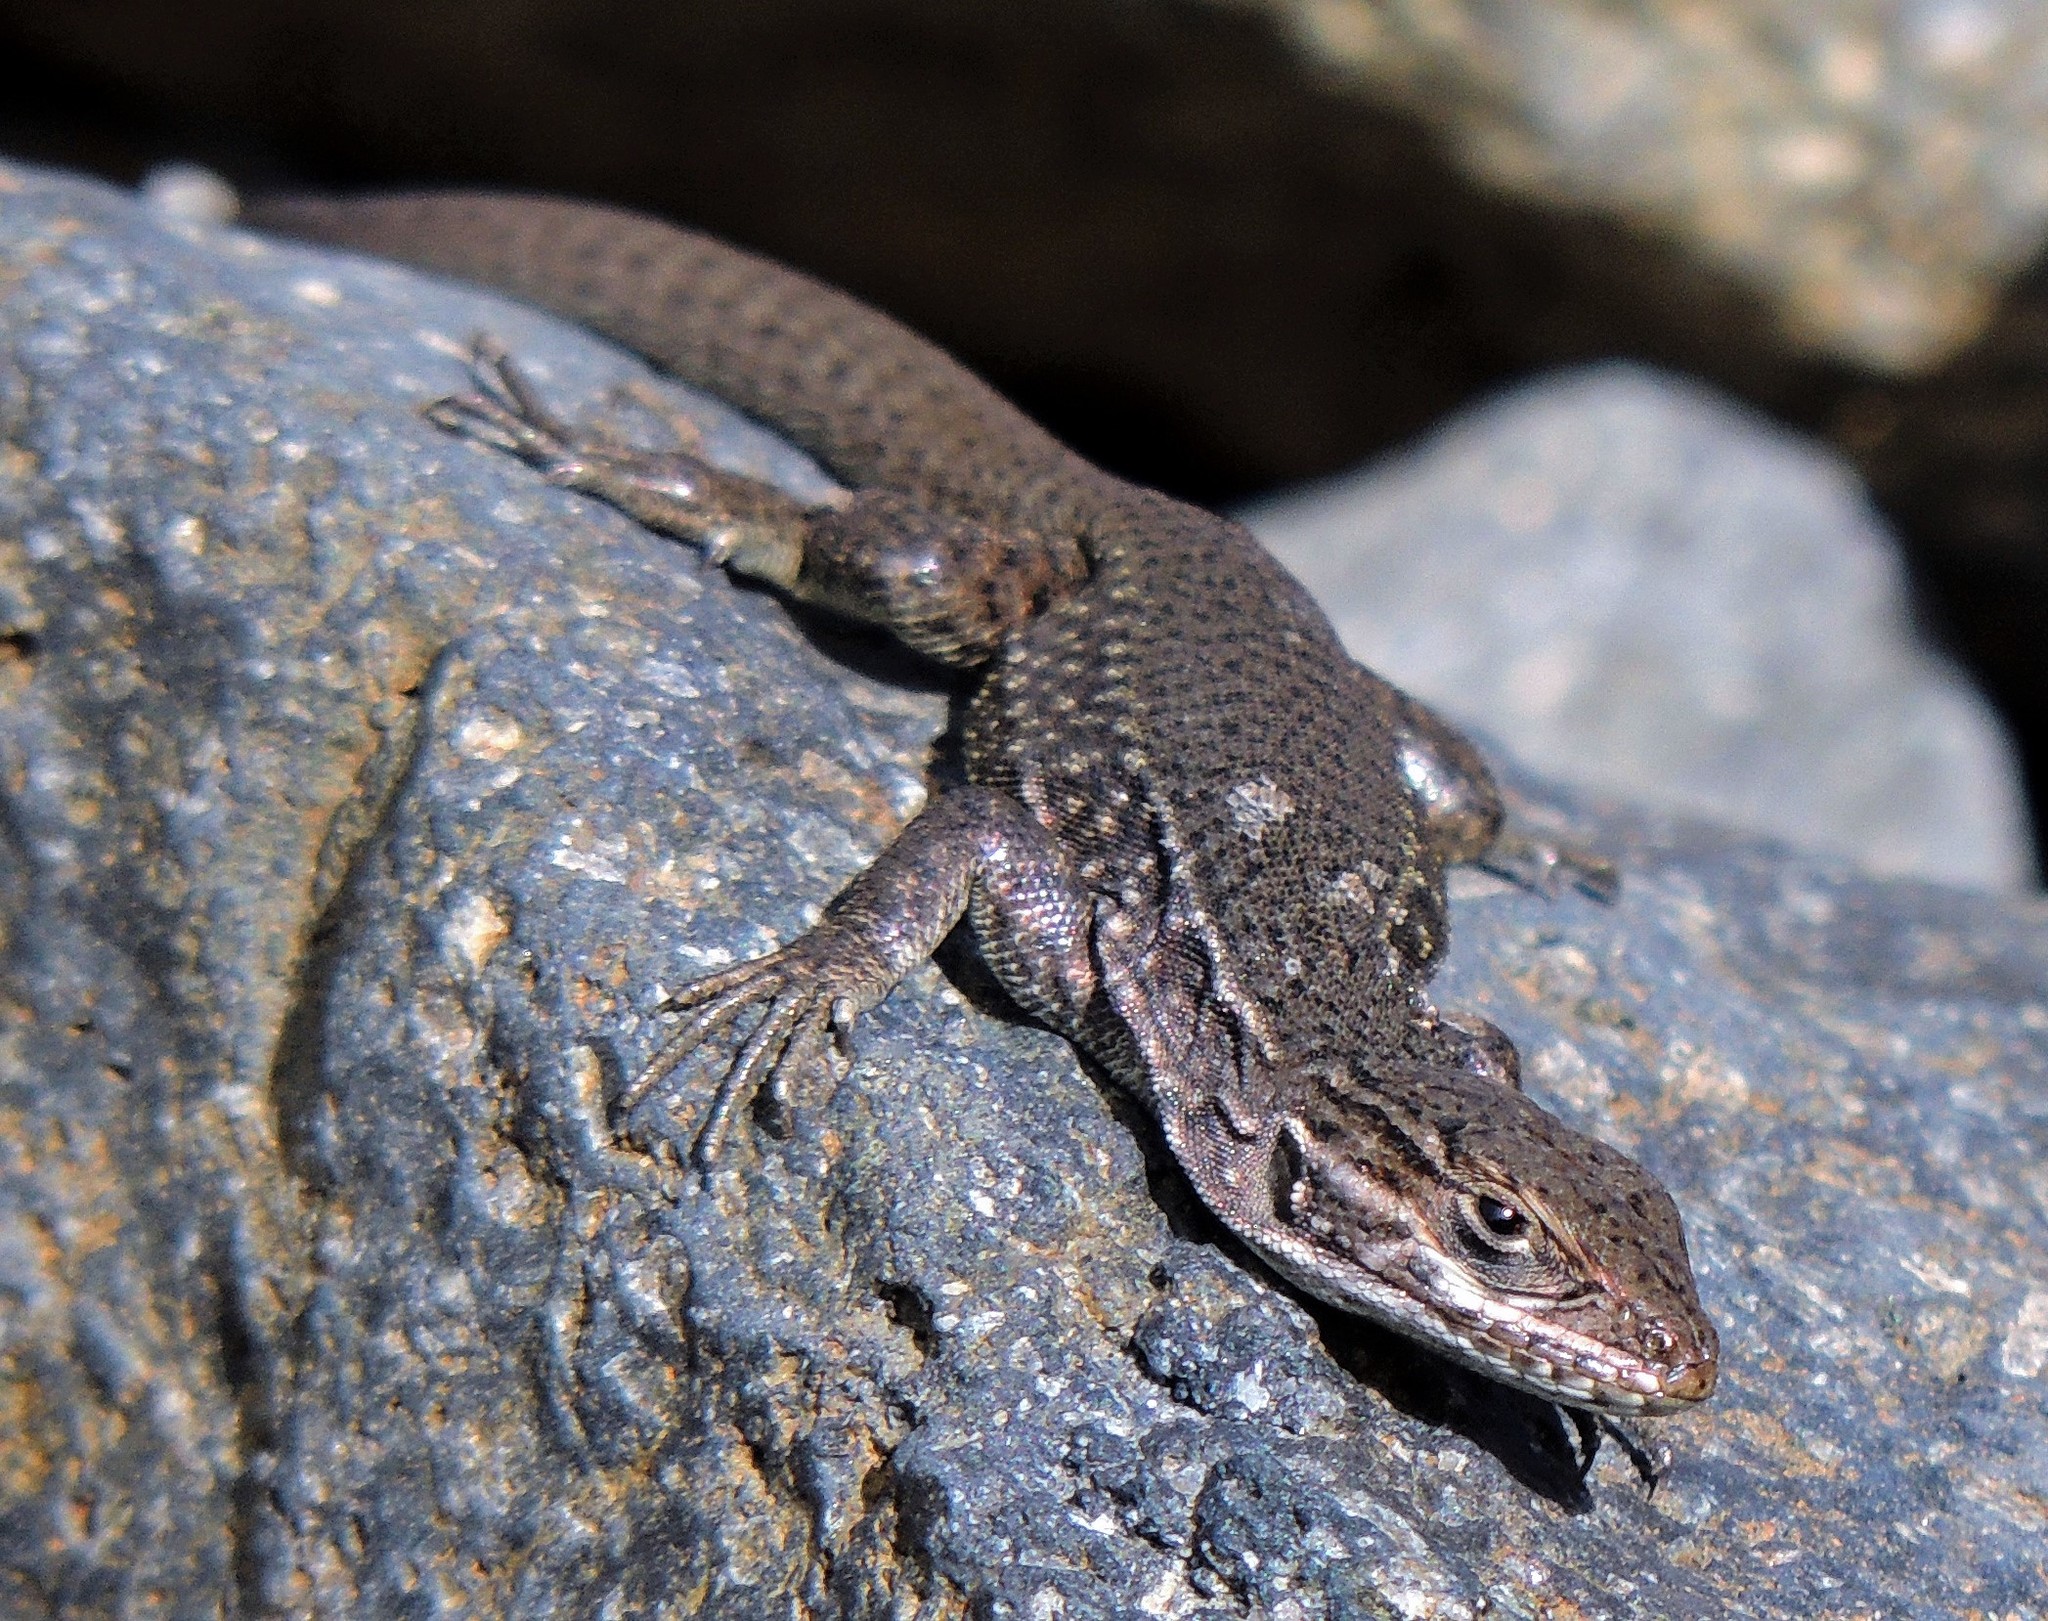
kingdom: Animalia
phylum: Chordata
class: Squamata
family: Liolaemidae
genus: Liolaemus
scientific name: Liolaemus neuquensis
